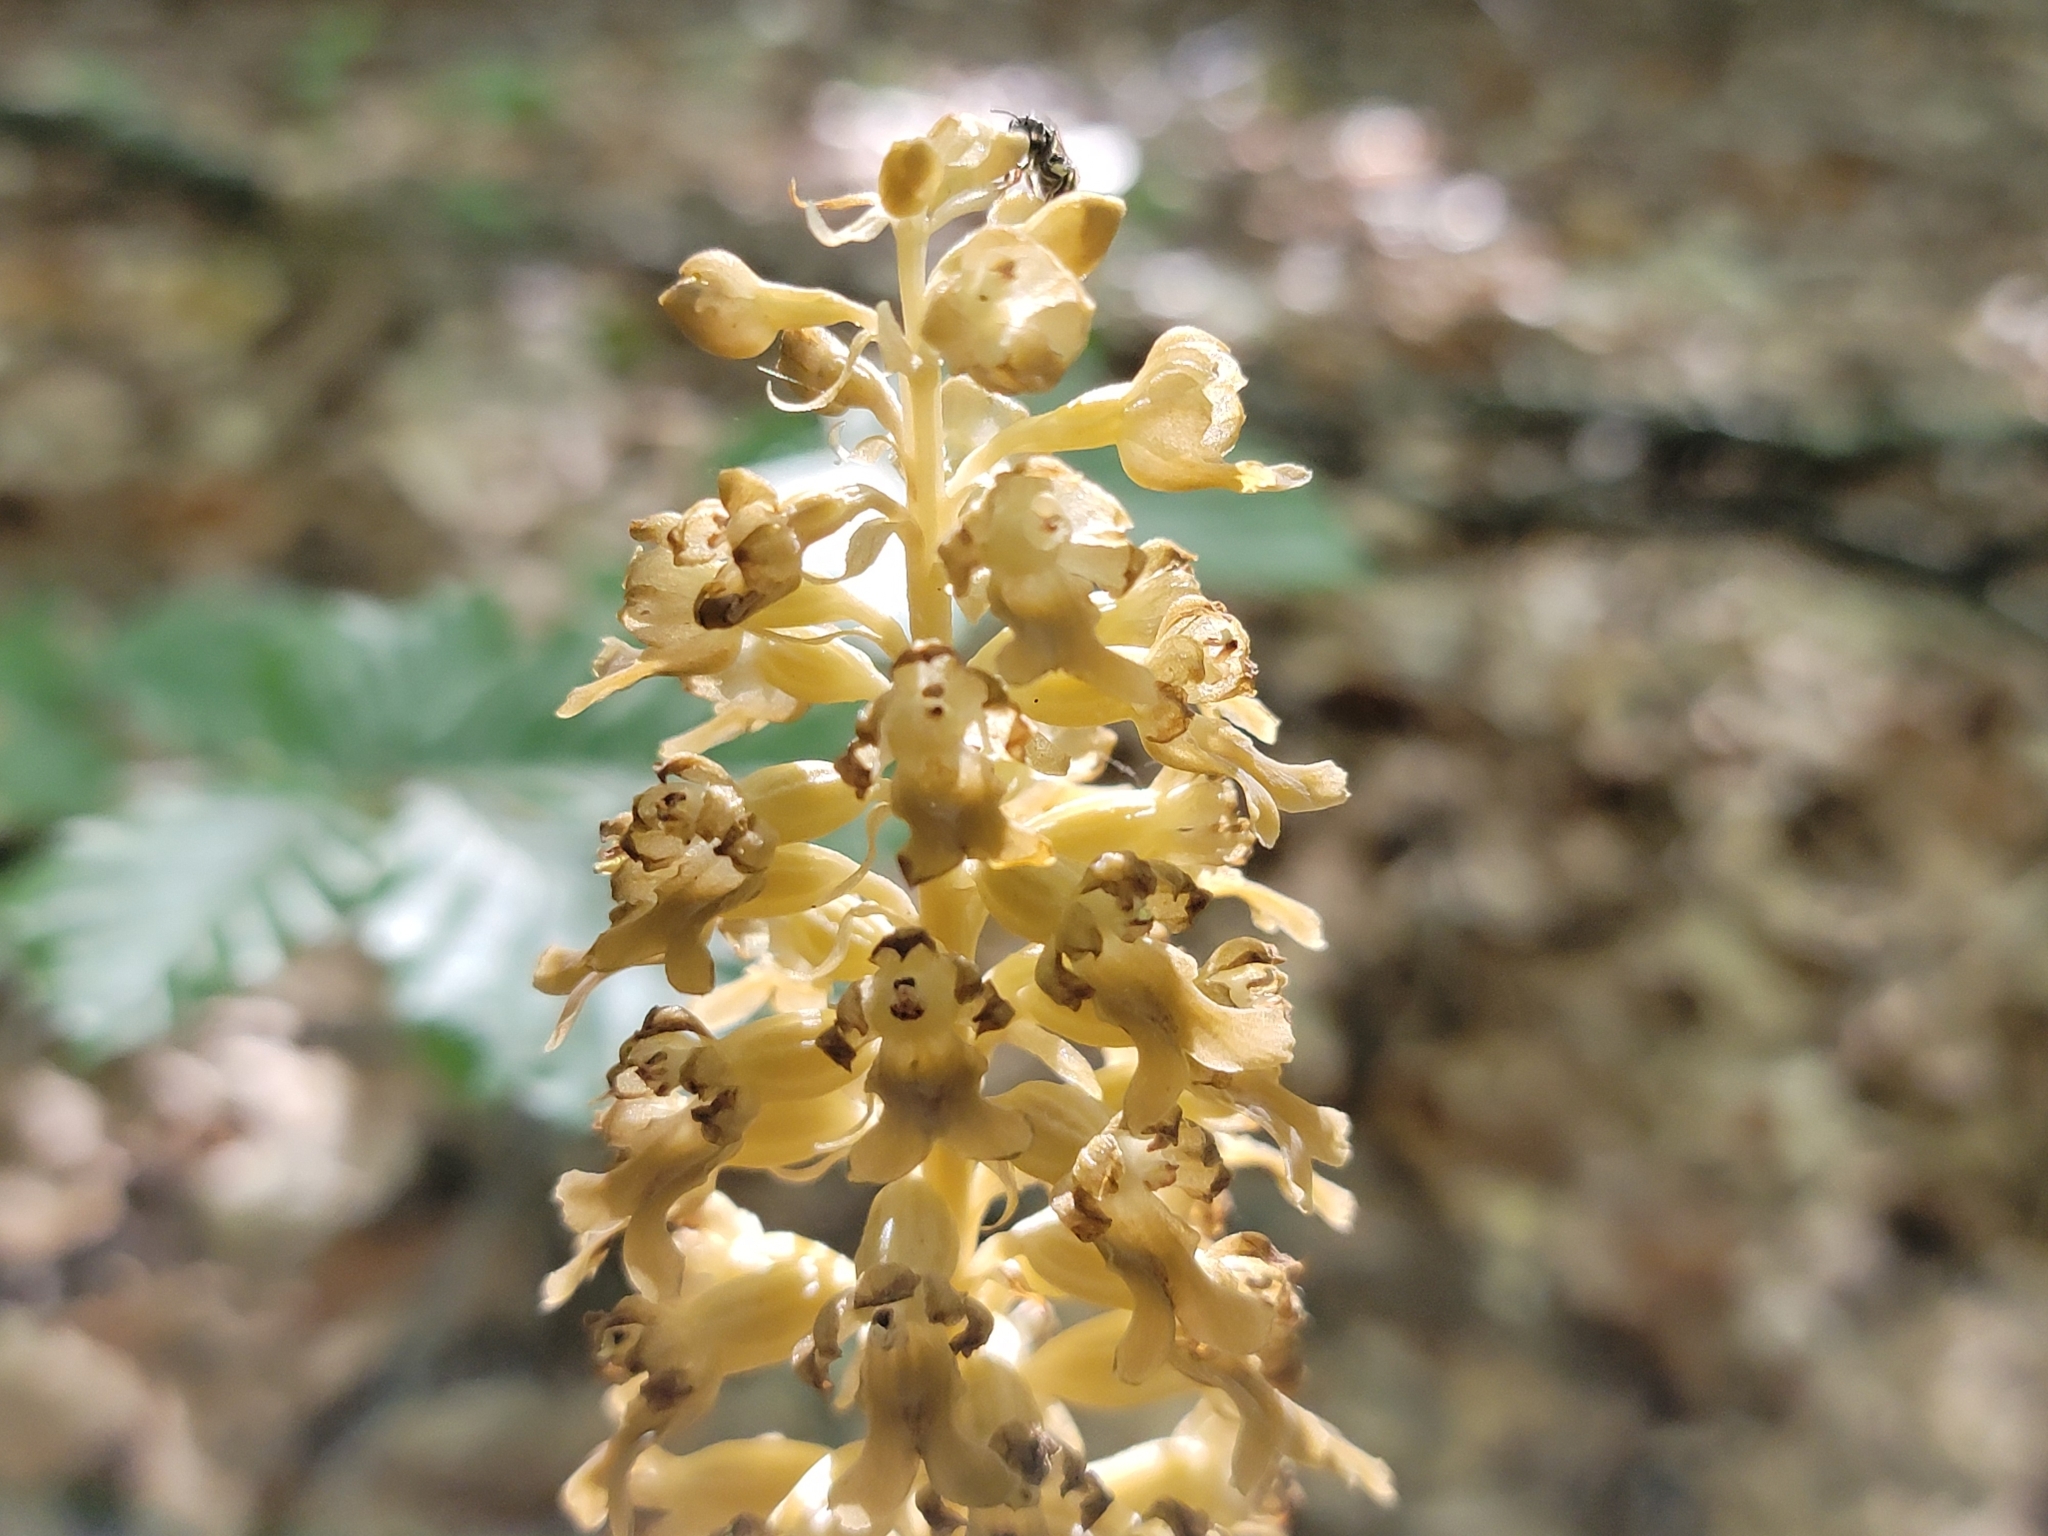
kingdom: Plantae
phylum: Tracheophyta
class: Liliopsida
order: Asparagales
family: Orchidaceae
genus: Neottia
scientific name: Neottia nidus-avis
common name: Bird's-nest orchid
